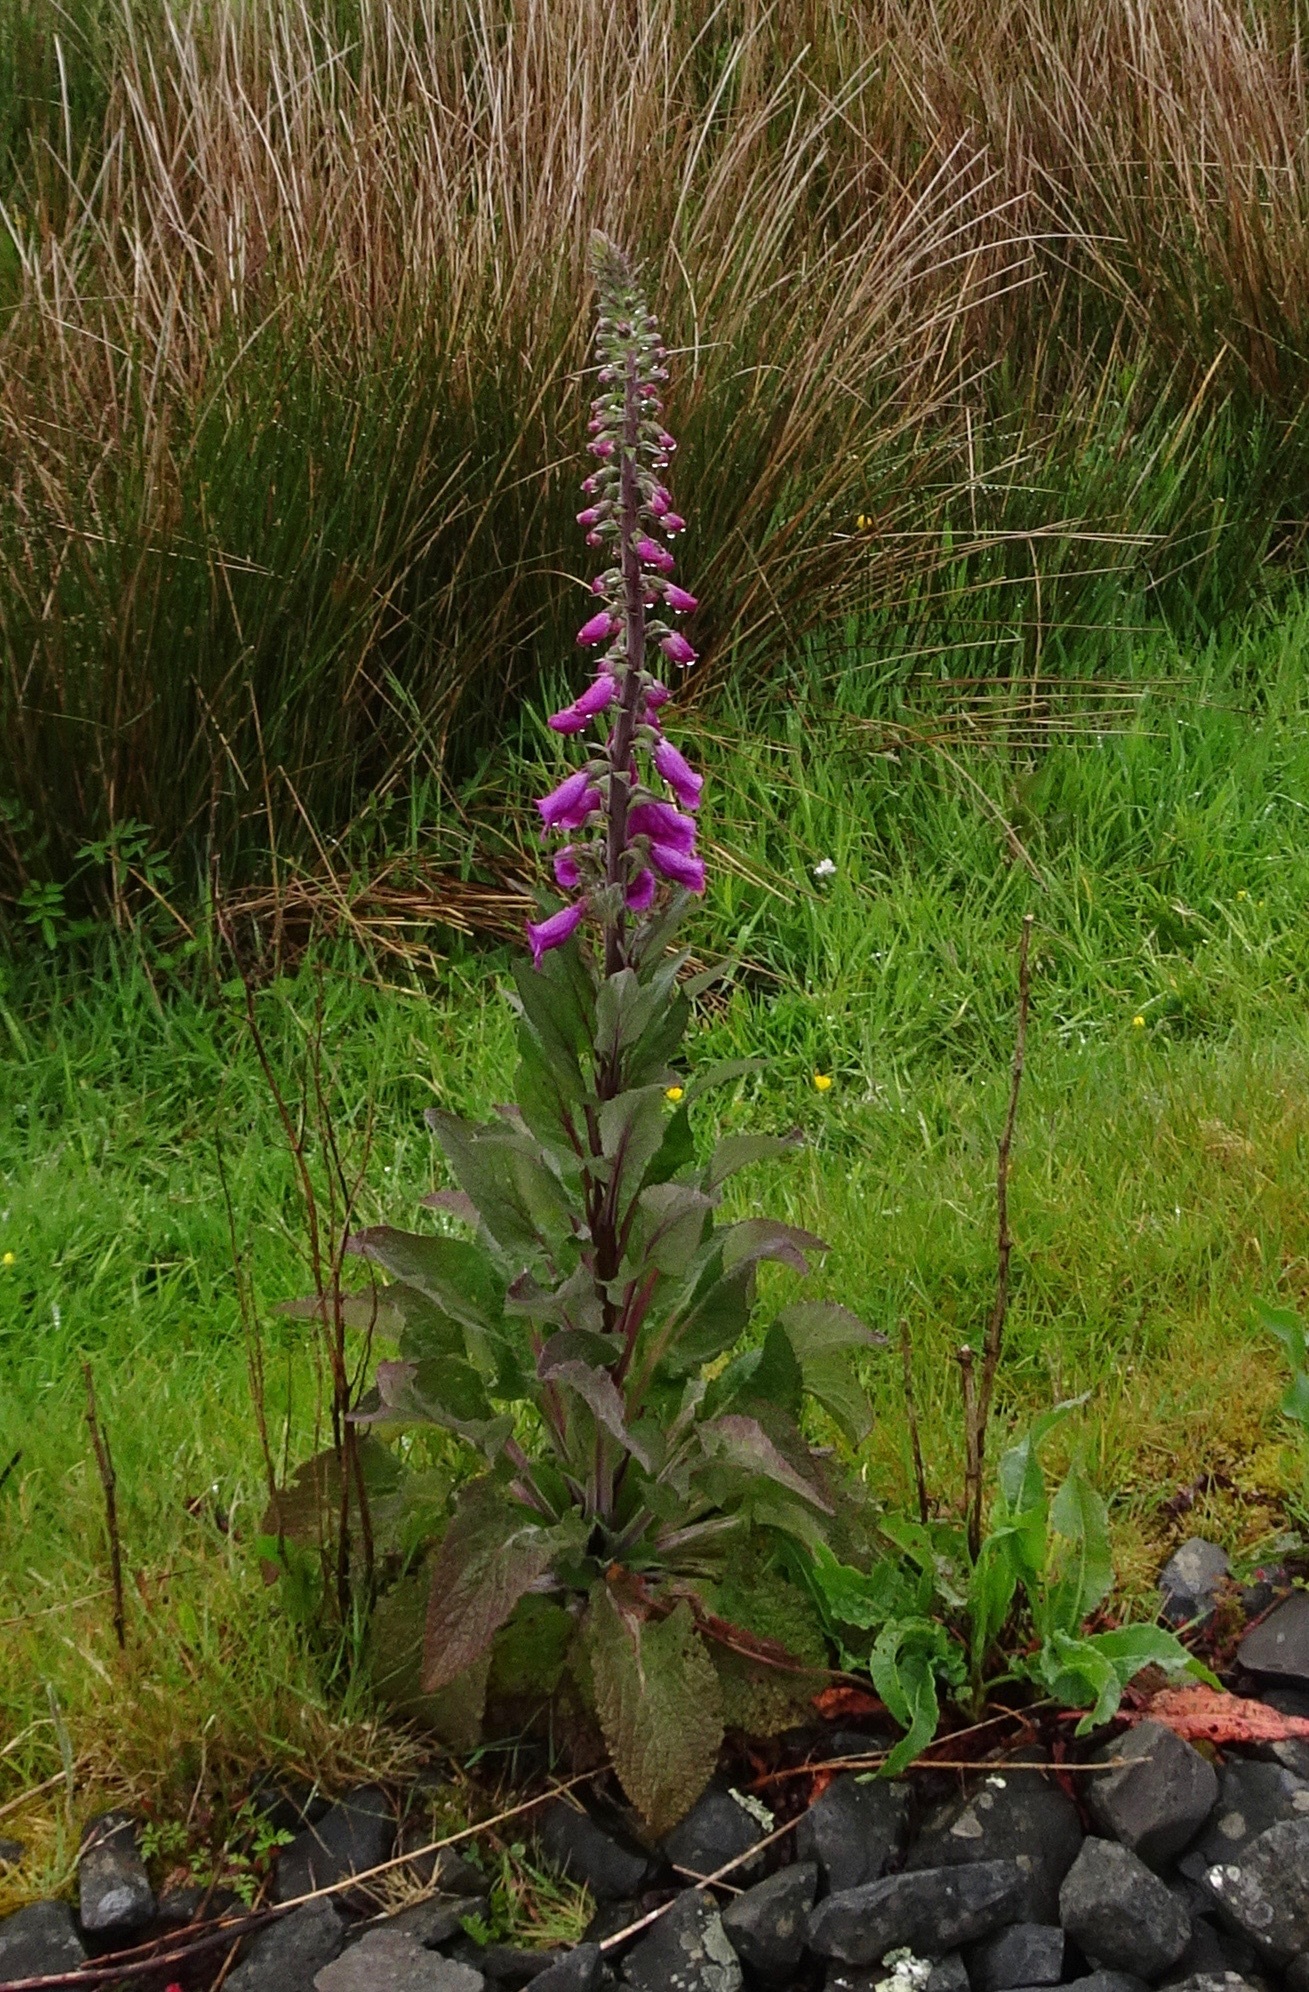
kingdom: Plantae
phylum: Tracheophyta
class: Magnoliopsida
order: Lamiales
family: Plantaginaceae
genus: Digitalis
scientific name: Digitalis purpurea
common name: Foxglove
